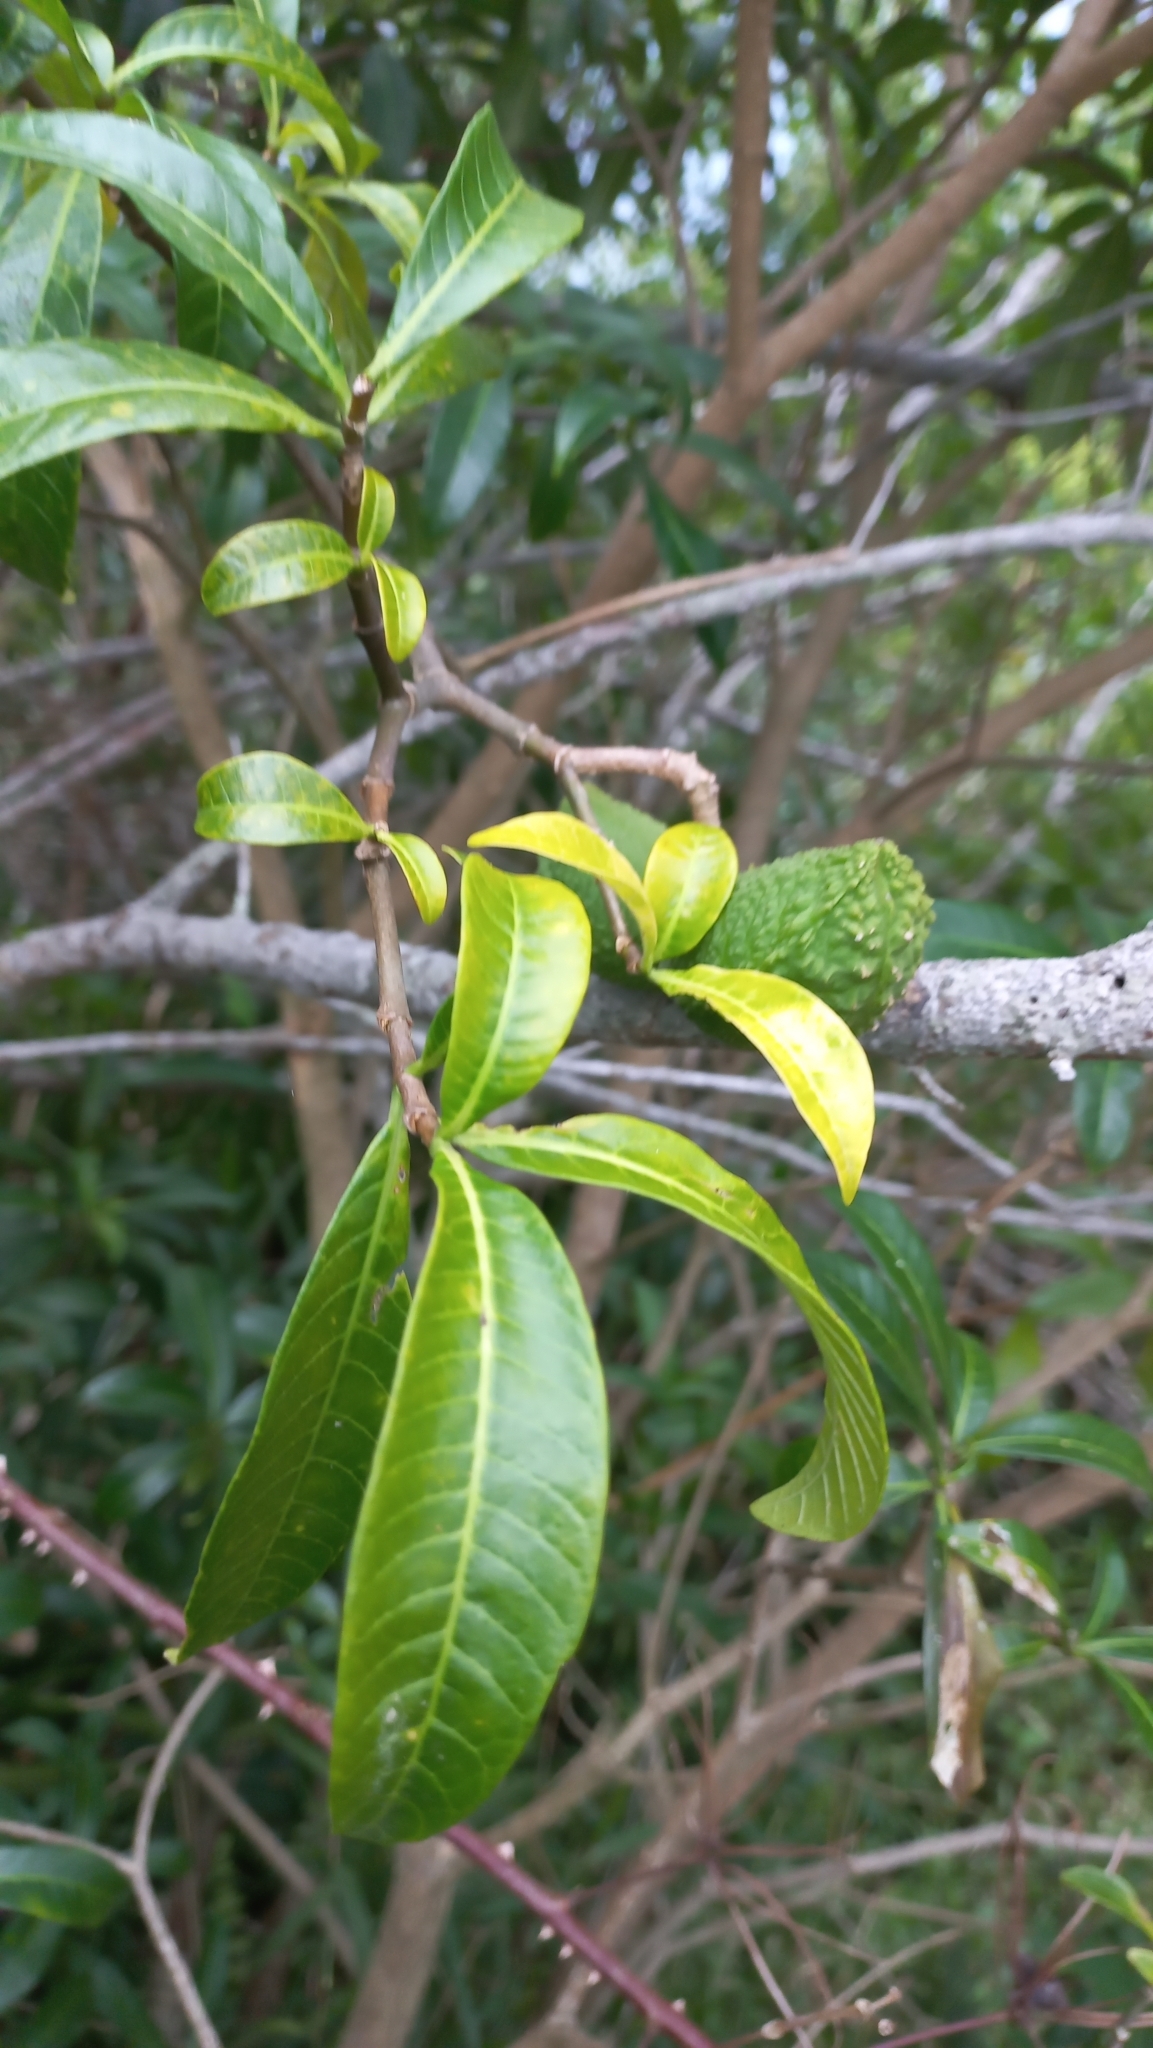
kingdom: Plantae
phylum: Tracheophyta
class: Magnoliopsida
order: Gentianales
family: Apocynaceae
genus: Tabernaemontana
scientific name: Tabernaemontana catharinensis
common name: Pinwheel-flower
